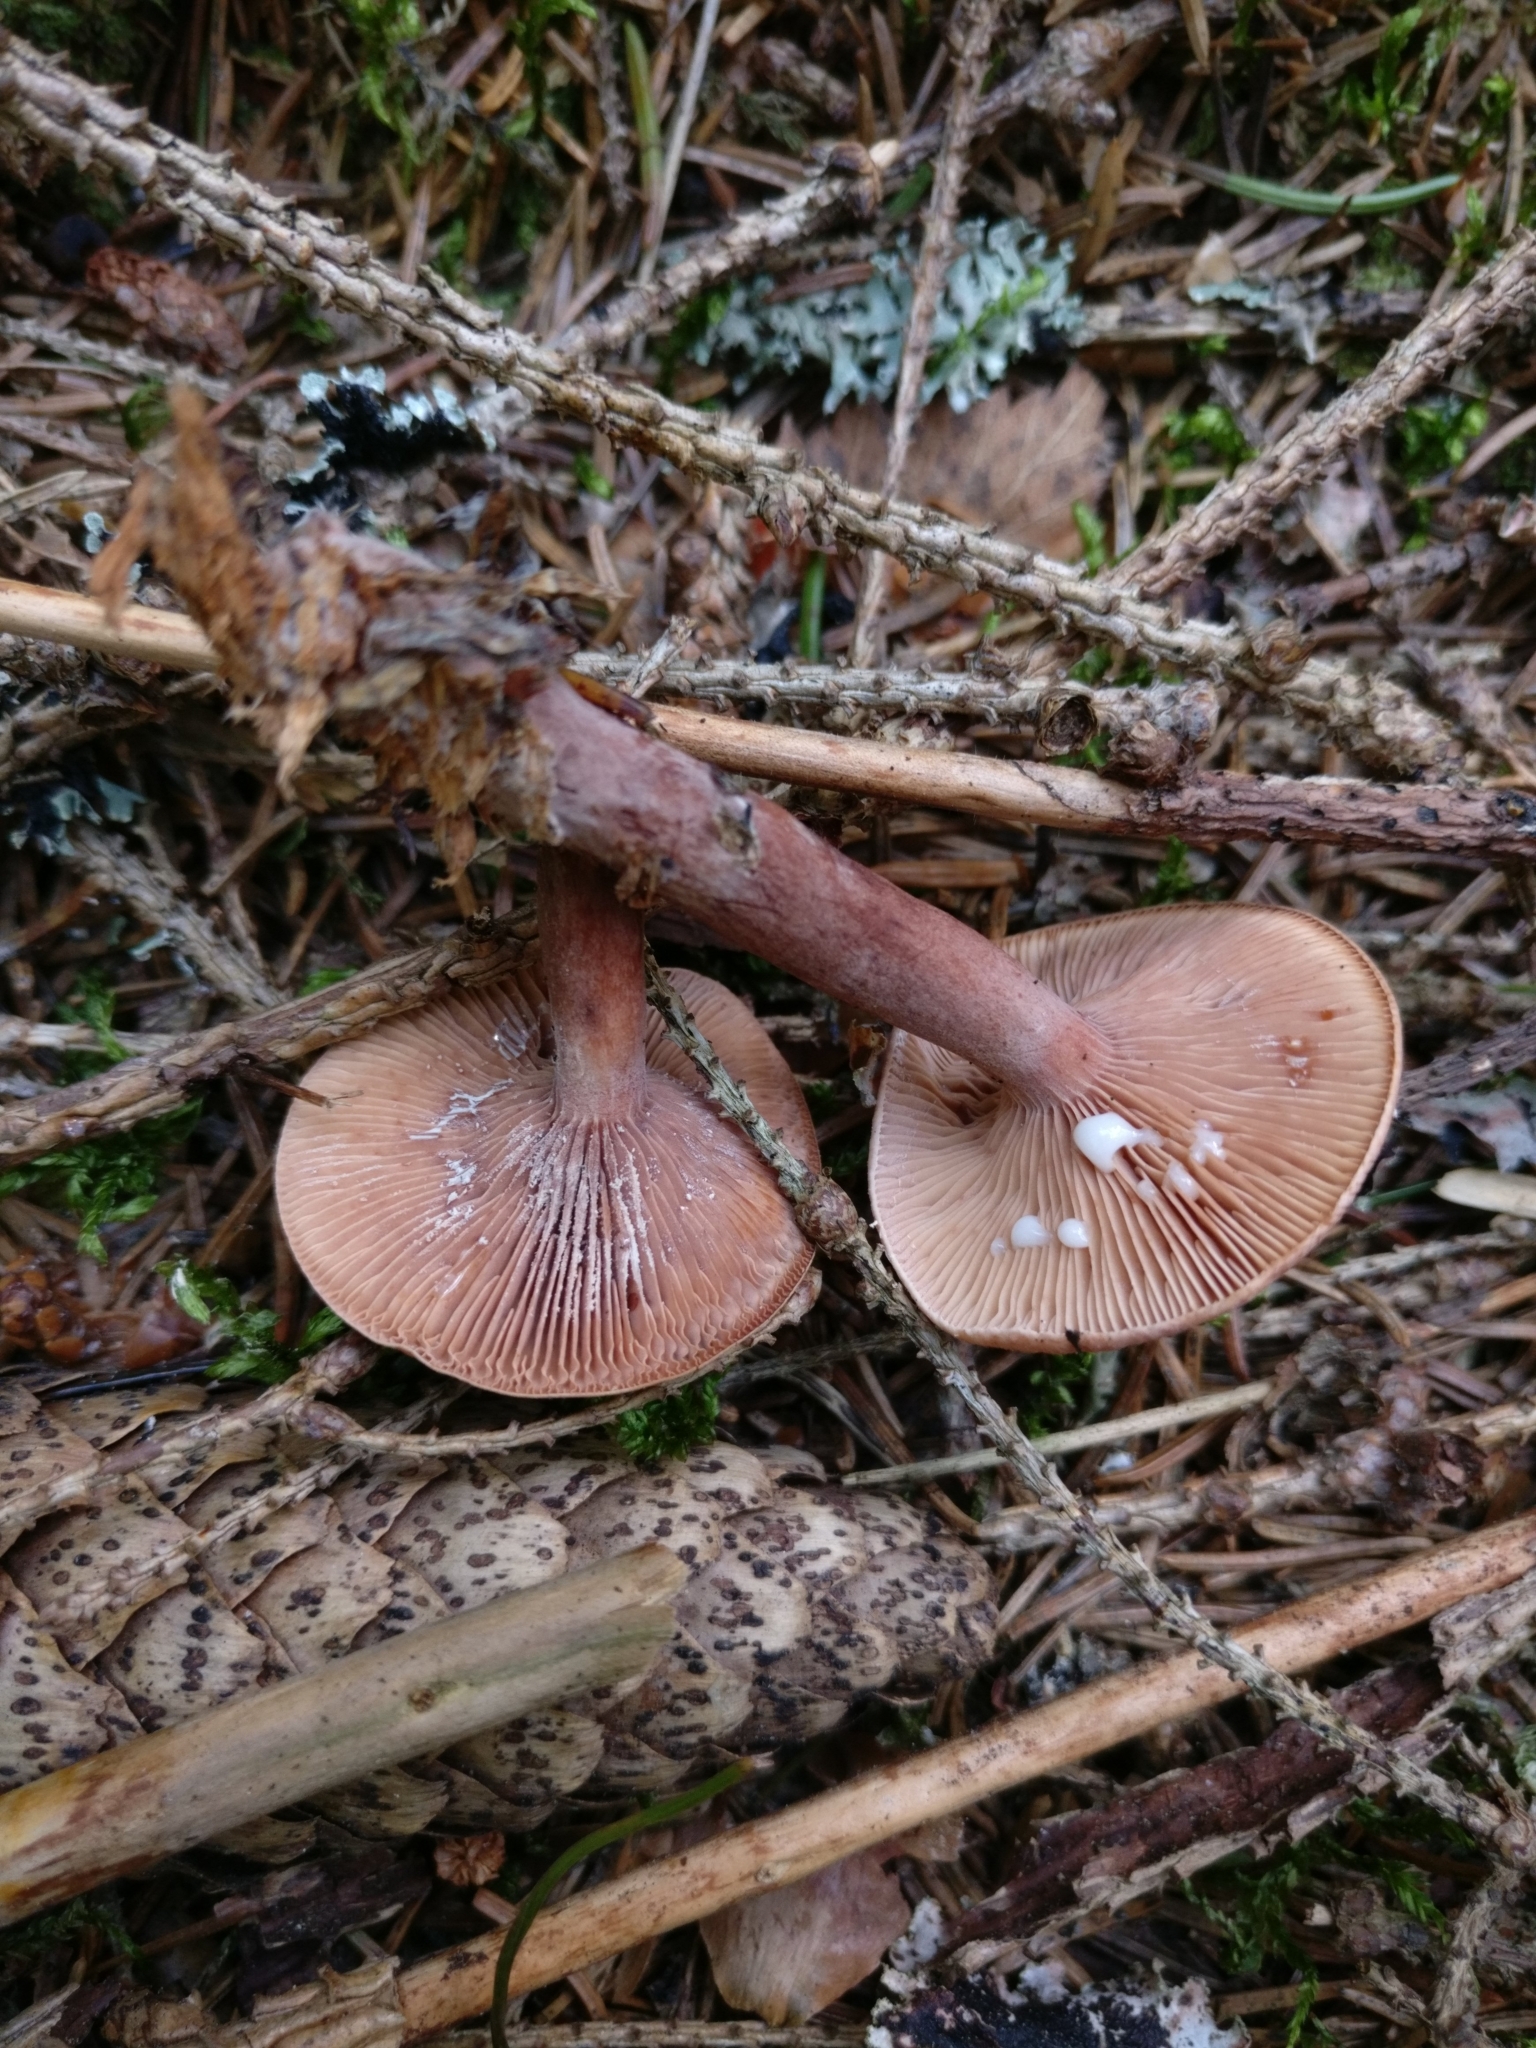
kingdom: Fungi
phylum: Basidiomycota
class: Agaricomycetes
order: Russulales
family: Russulaceae
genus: Lactarius
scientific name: Lactarius camphoratus
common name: Curry milkcap
